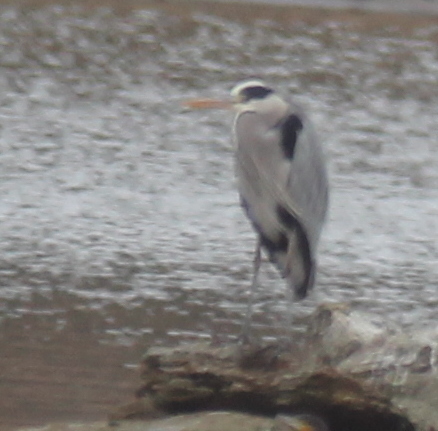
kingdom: Animalia
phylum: Chordata
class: Aves
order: Pelecaniformes
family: Ardeidae
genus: Ardea
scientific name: Ardea cinerea
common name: Grey heron
